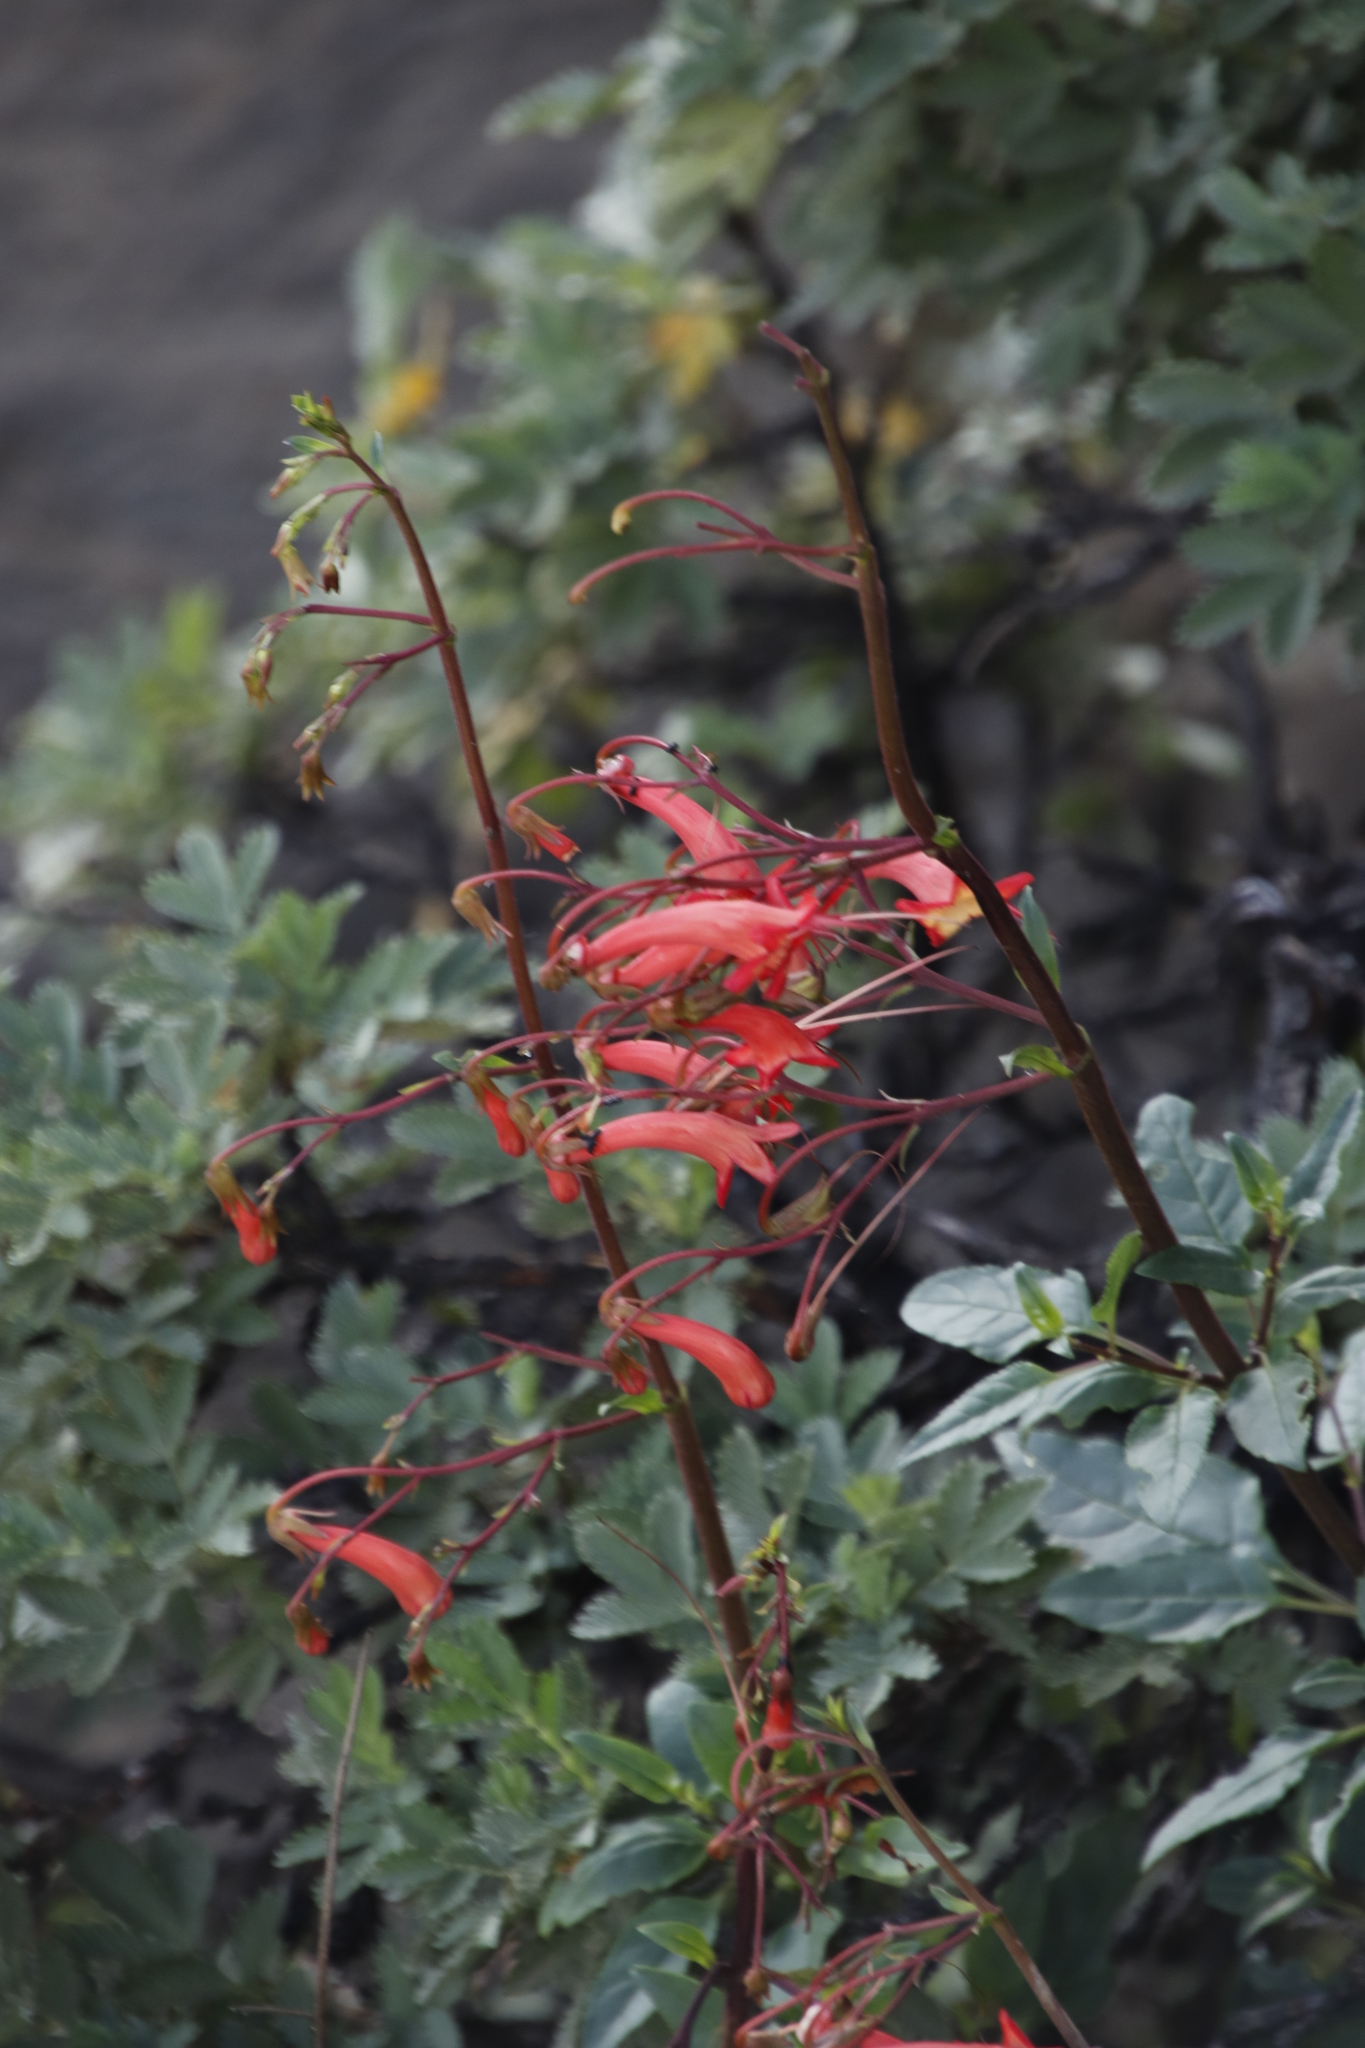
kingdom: Plantae
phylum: Tracheophyta
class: Magnoliopsida
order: Lamiales
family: Scrophulariaceae
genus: Phygelius
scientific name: Phygelius capensis
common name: Cape figwort
